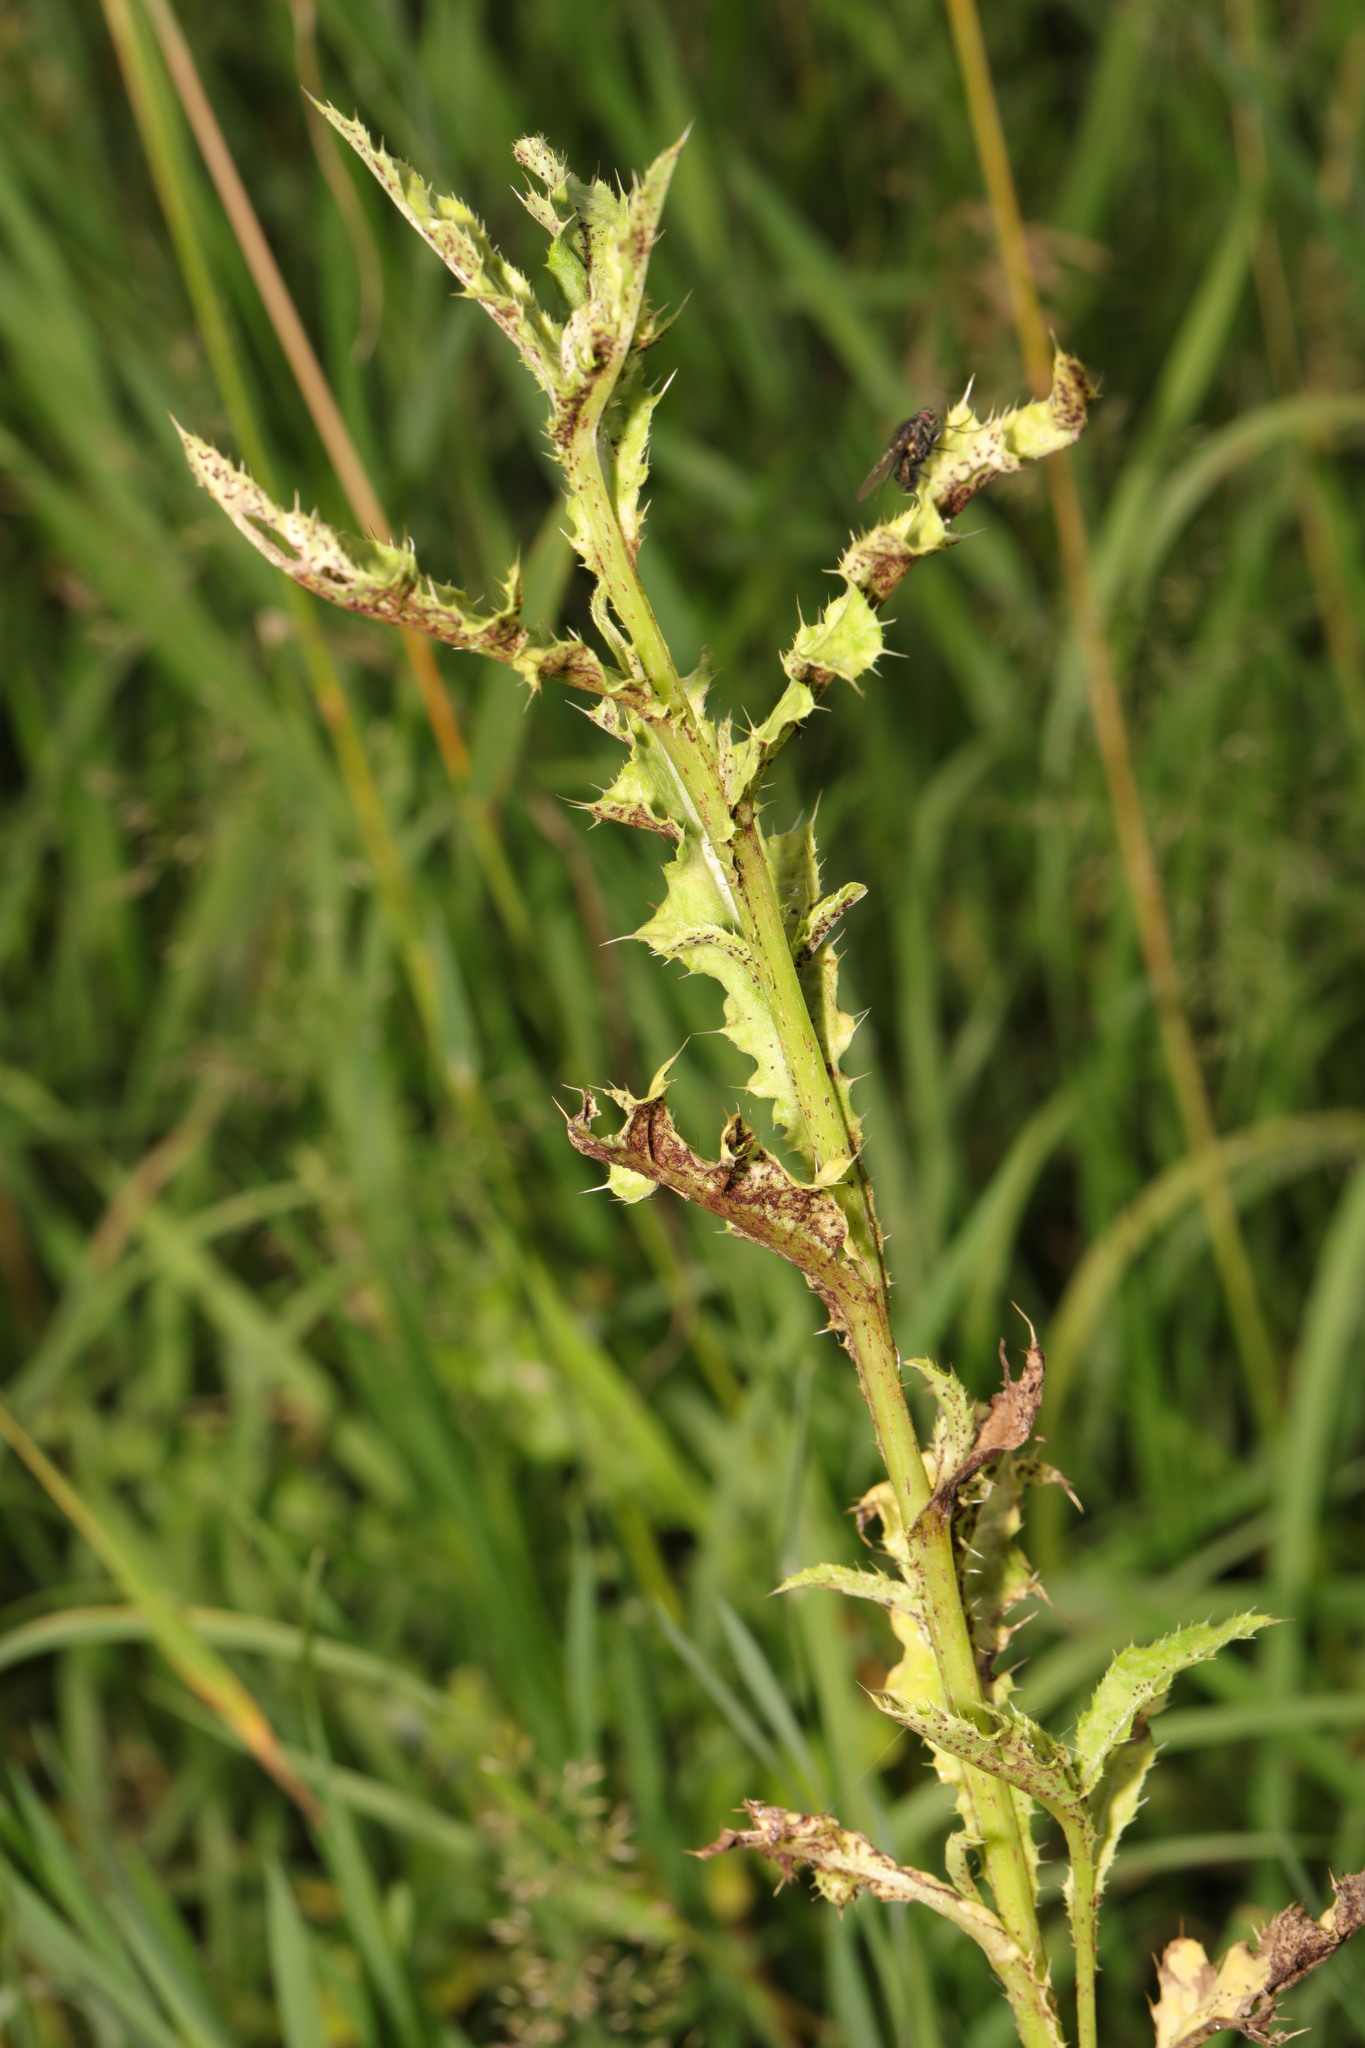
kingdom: Plantae
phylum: Tracheophyta
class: Magnoliopsida
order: Asterales
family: Asteraceae
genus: Cirsium
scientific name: Cirsium arvense
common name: Creeping thistle
